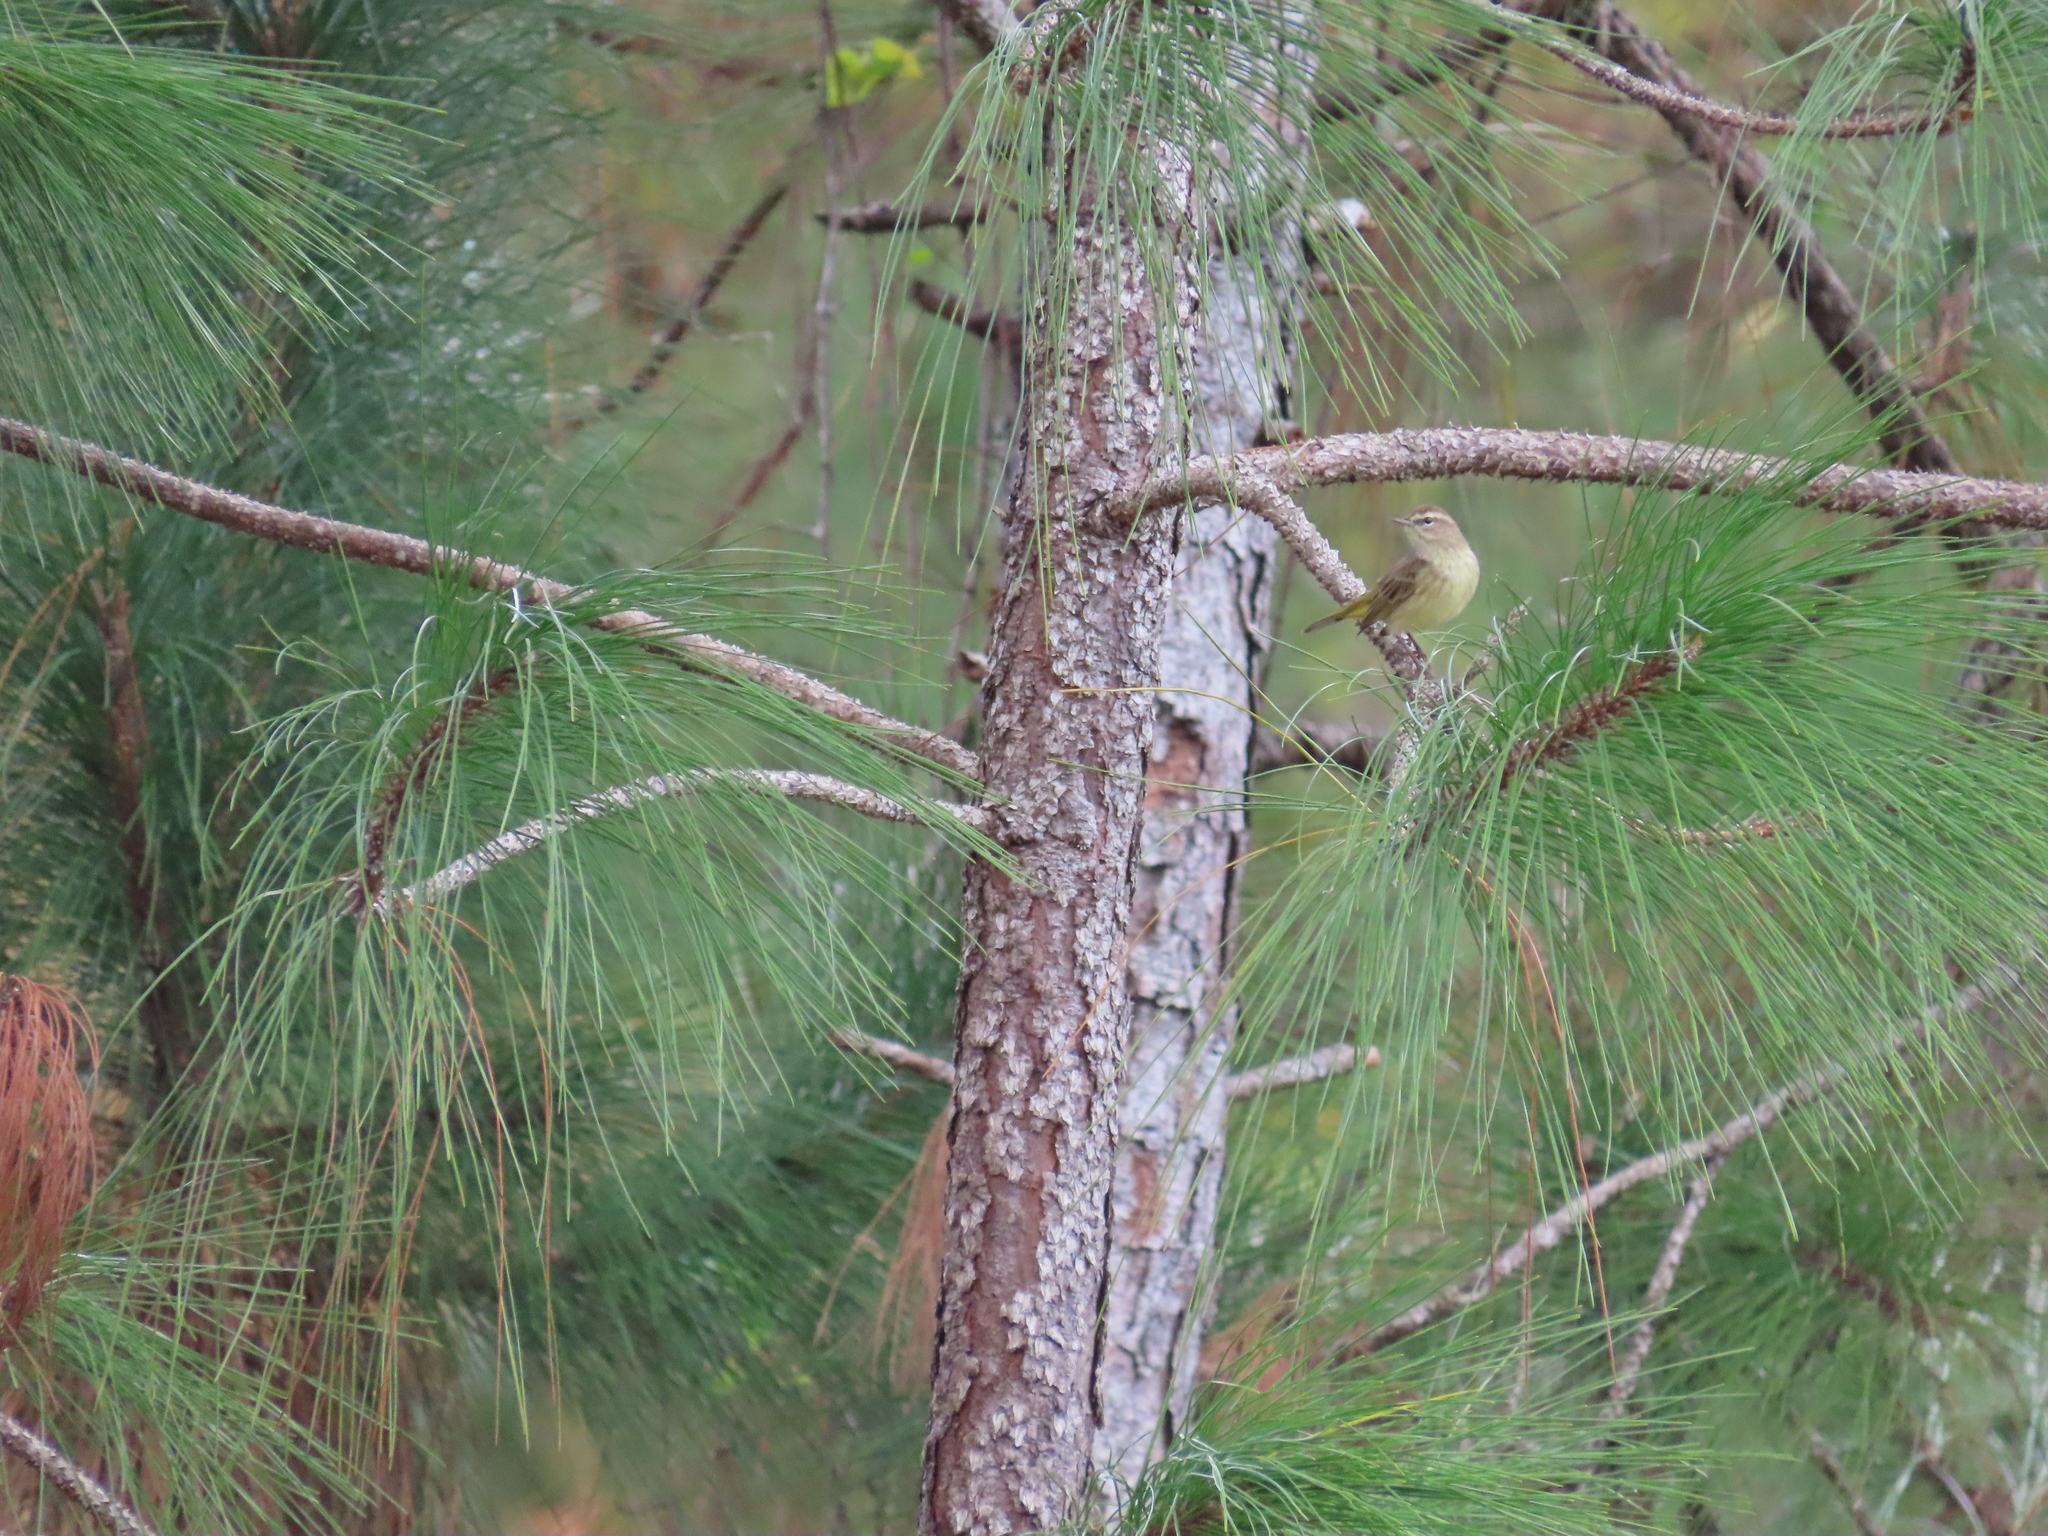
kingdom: Animalia
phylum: Chordata
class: Aves
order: Passeriformes
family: Parulidae
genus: Setophaga
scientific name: Setophaga palmarum
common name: Palm warbler
